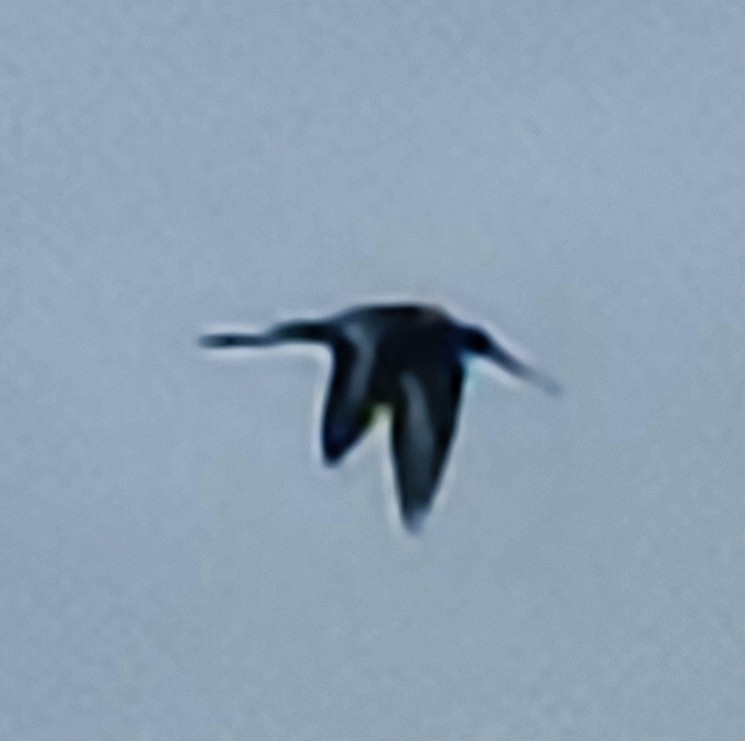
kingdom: Animalia
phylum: Chordata
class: Aves
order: Charadriiformes
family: Scolopacidae
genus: Limosa
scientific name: Limosa limosa
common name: Black-tailed godwit
